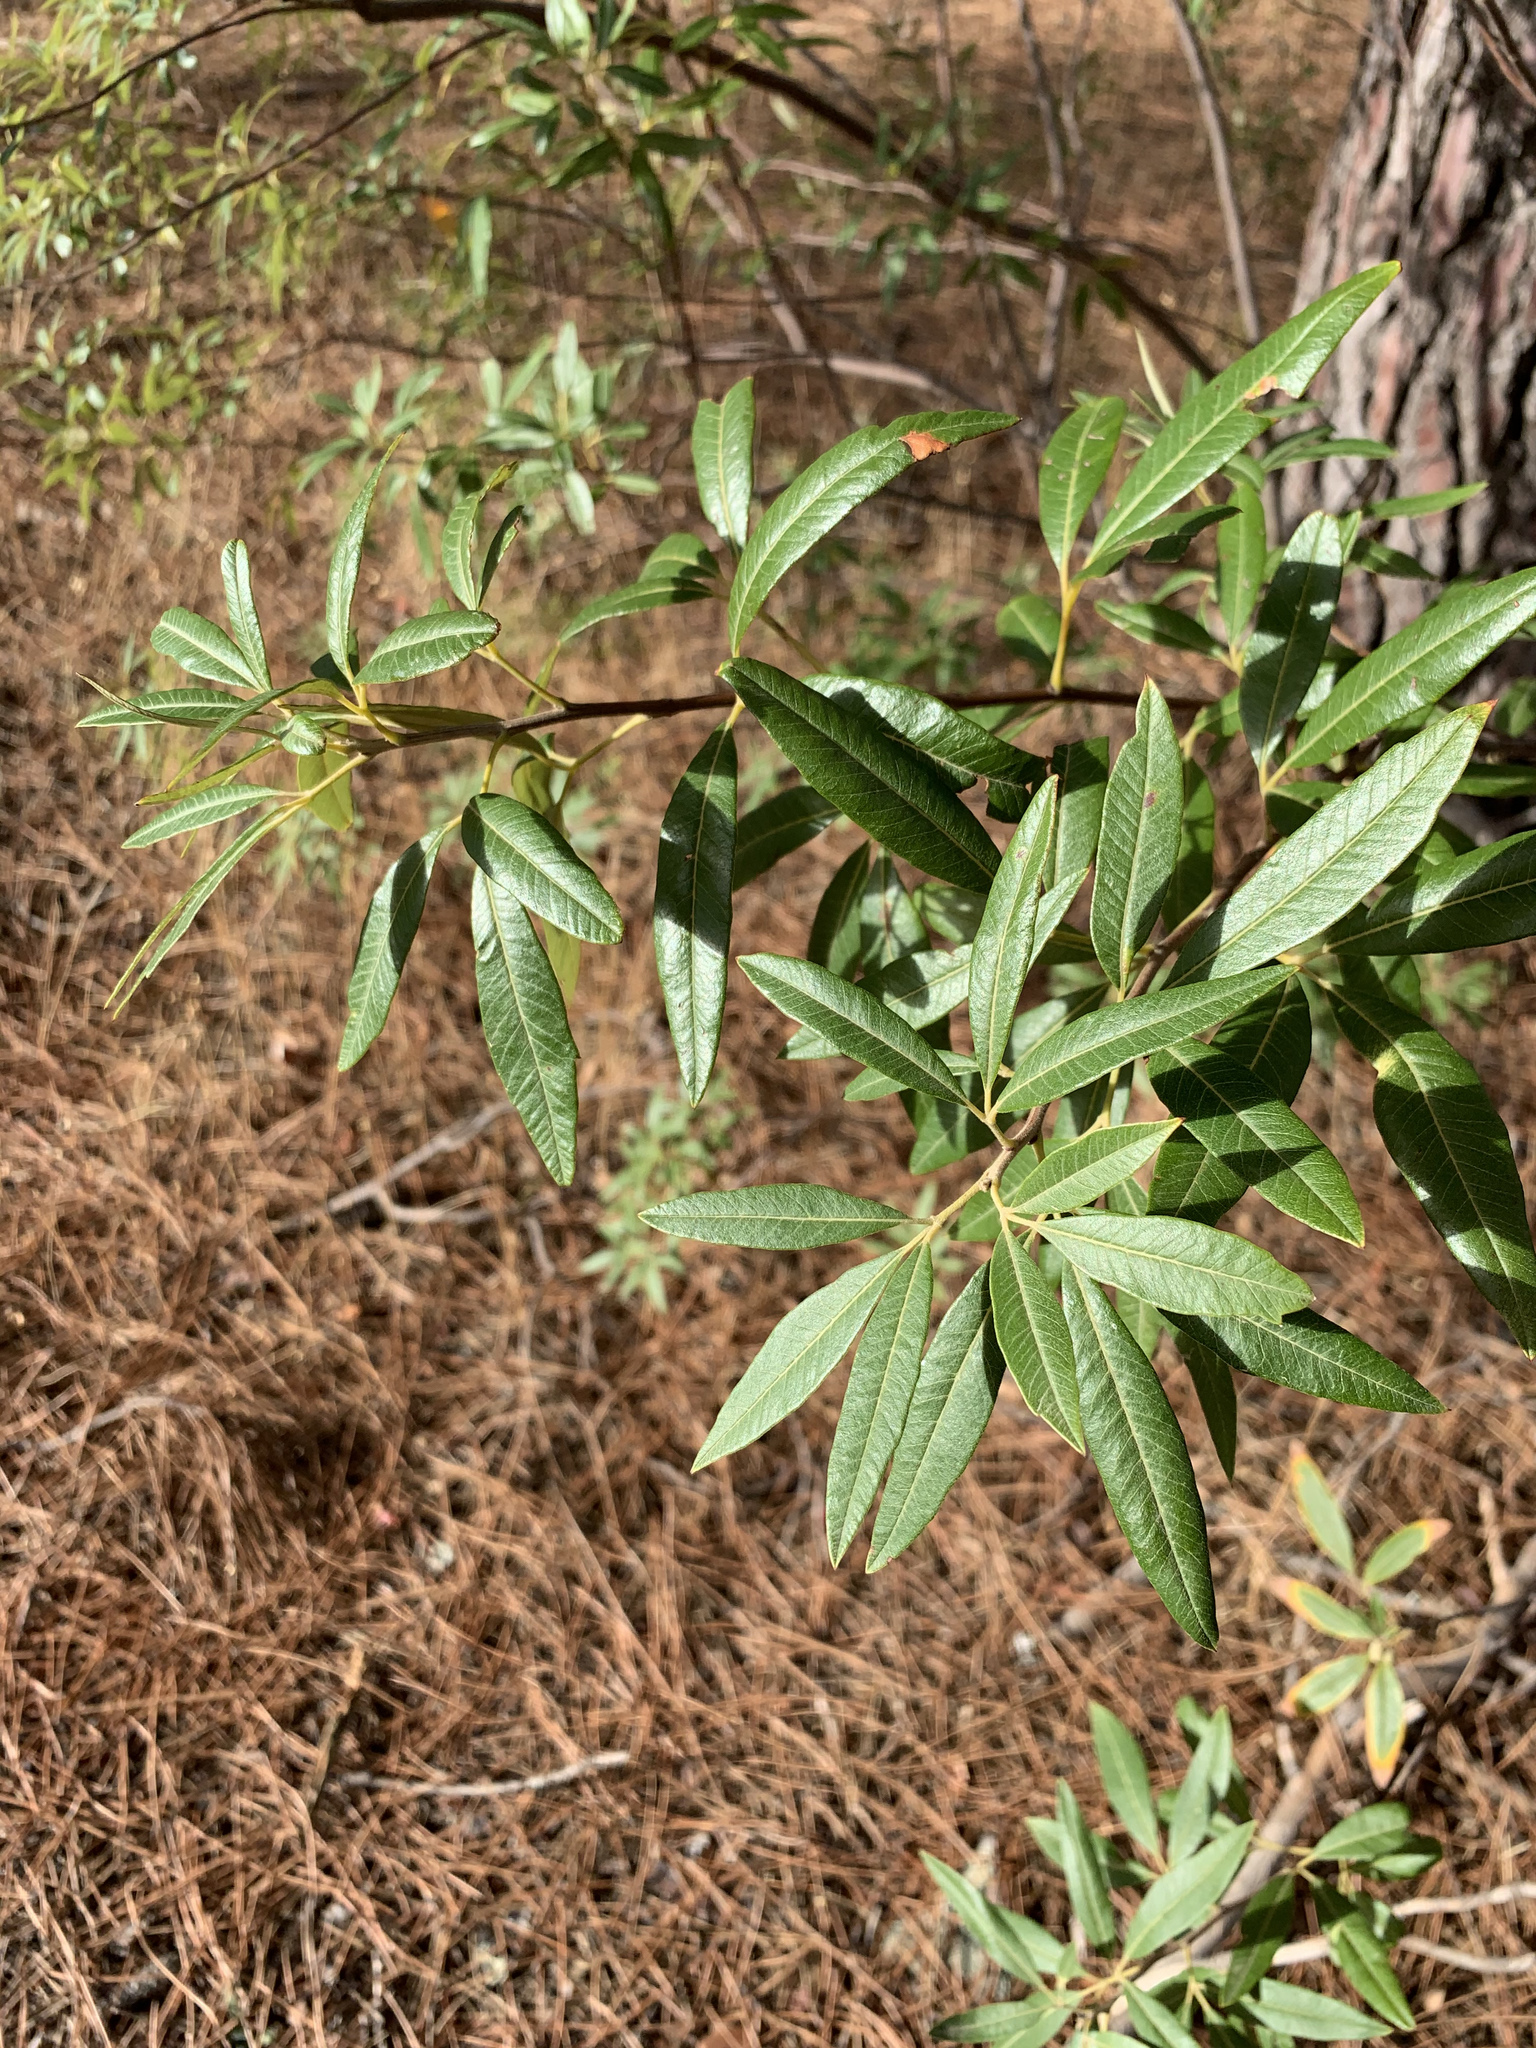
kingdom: Plantae
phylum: Tracheophyta
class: Magnoliopsida
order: Sapindales
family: Anacardiaceae
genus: Searsia
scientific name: Searsia angustifolia
